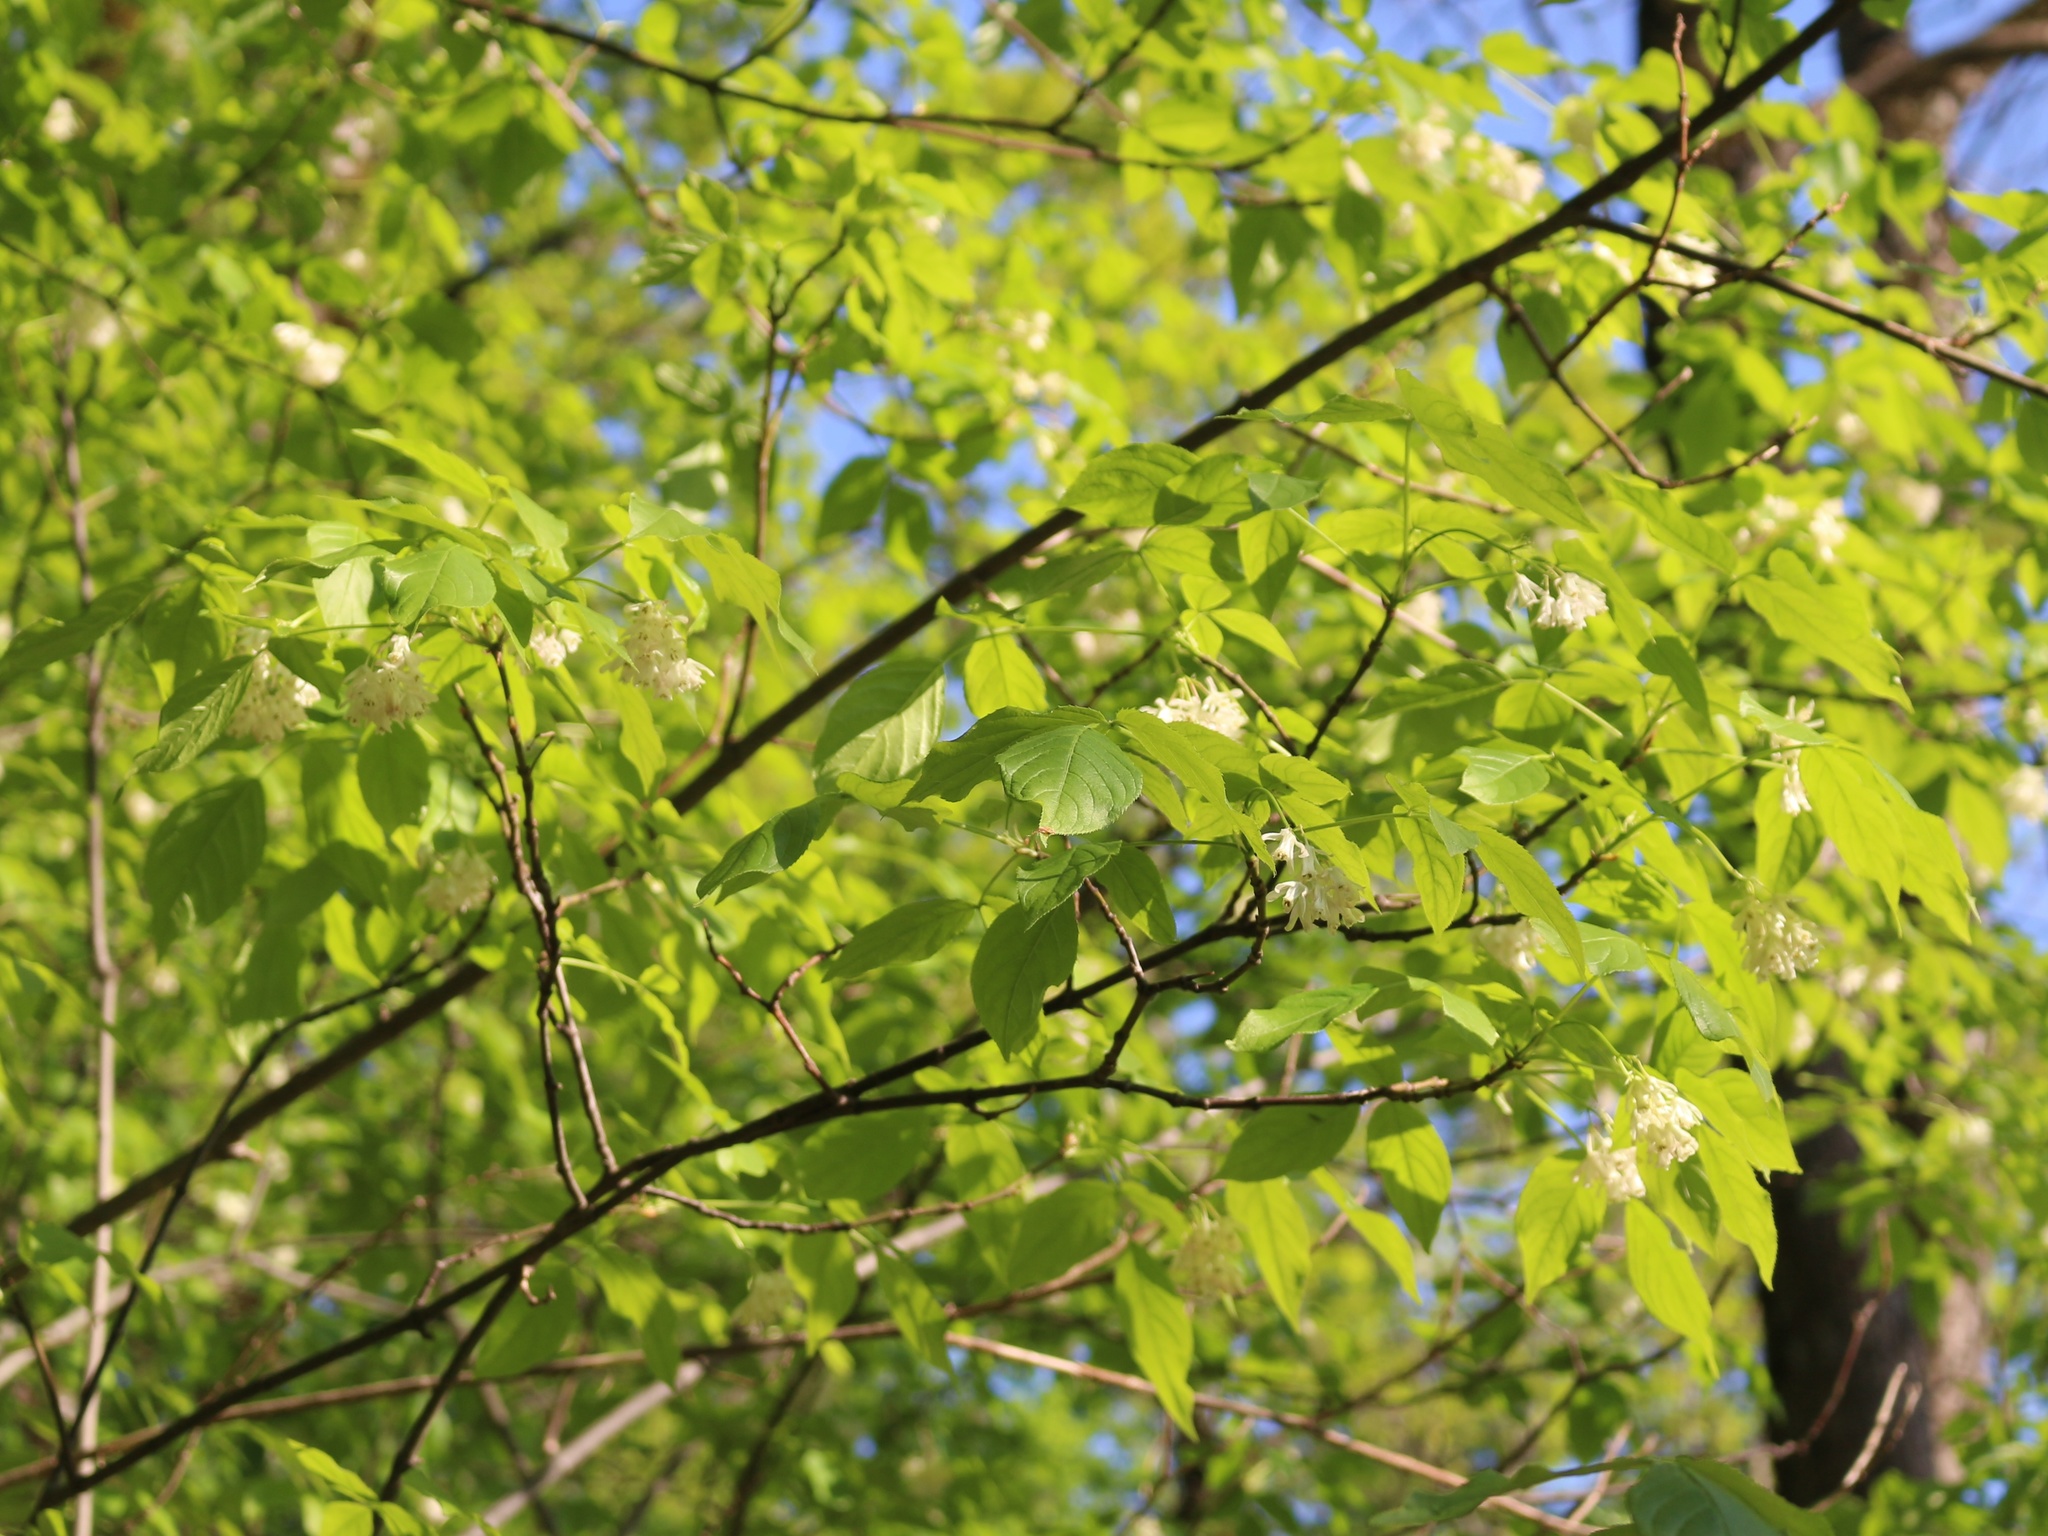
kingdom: Plantae
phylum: Tracheophyta
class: Magnoliopsida
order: Crossosomatales
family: Staphyleaceae
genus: Staphylea
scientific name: Staphylea colchica
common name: Caucasian bladdernut
